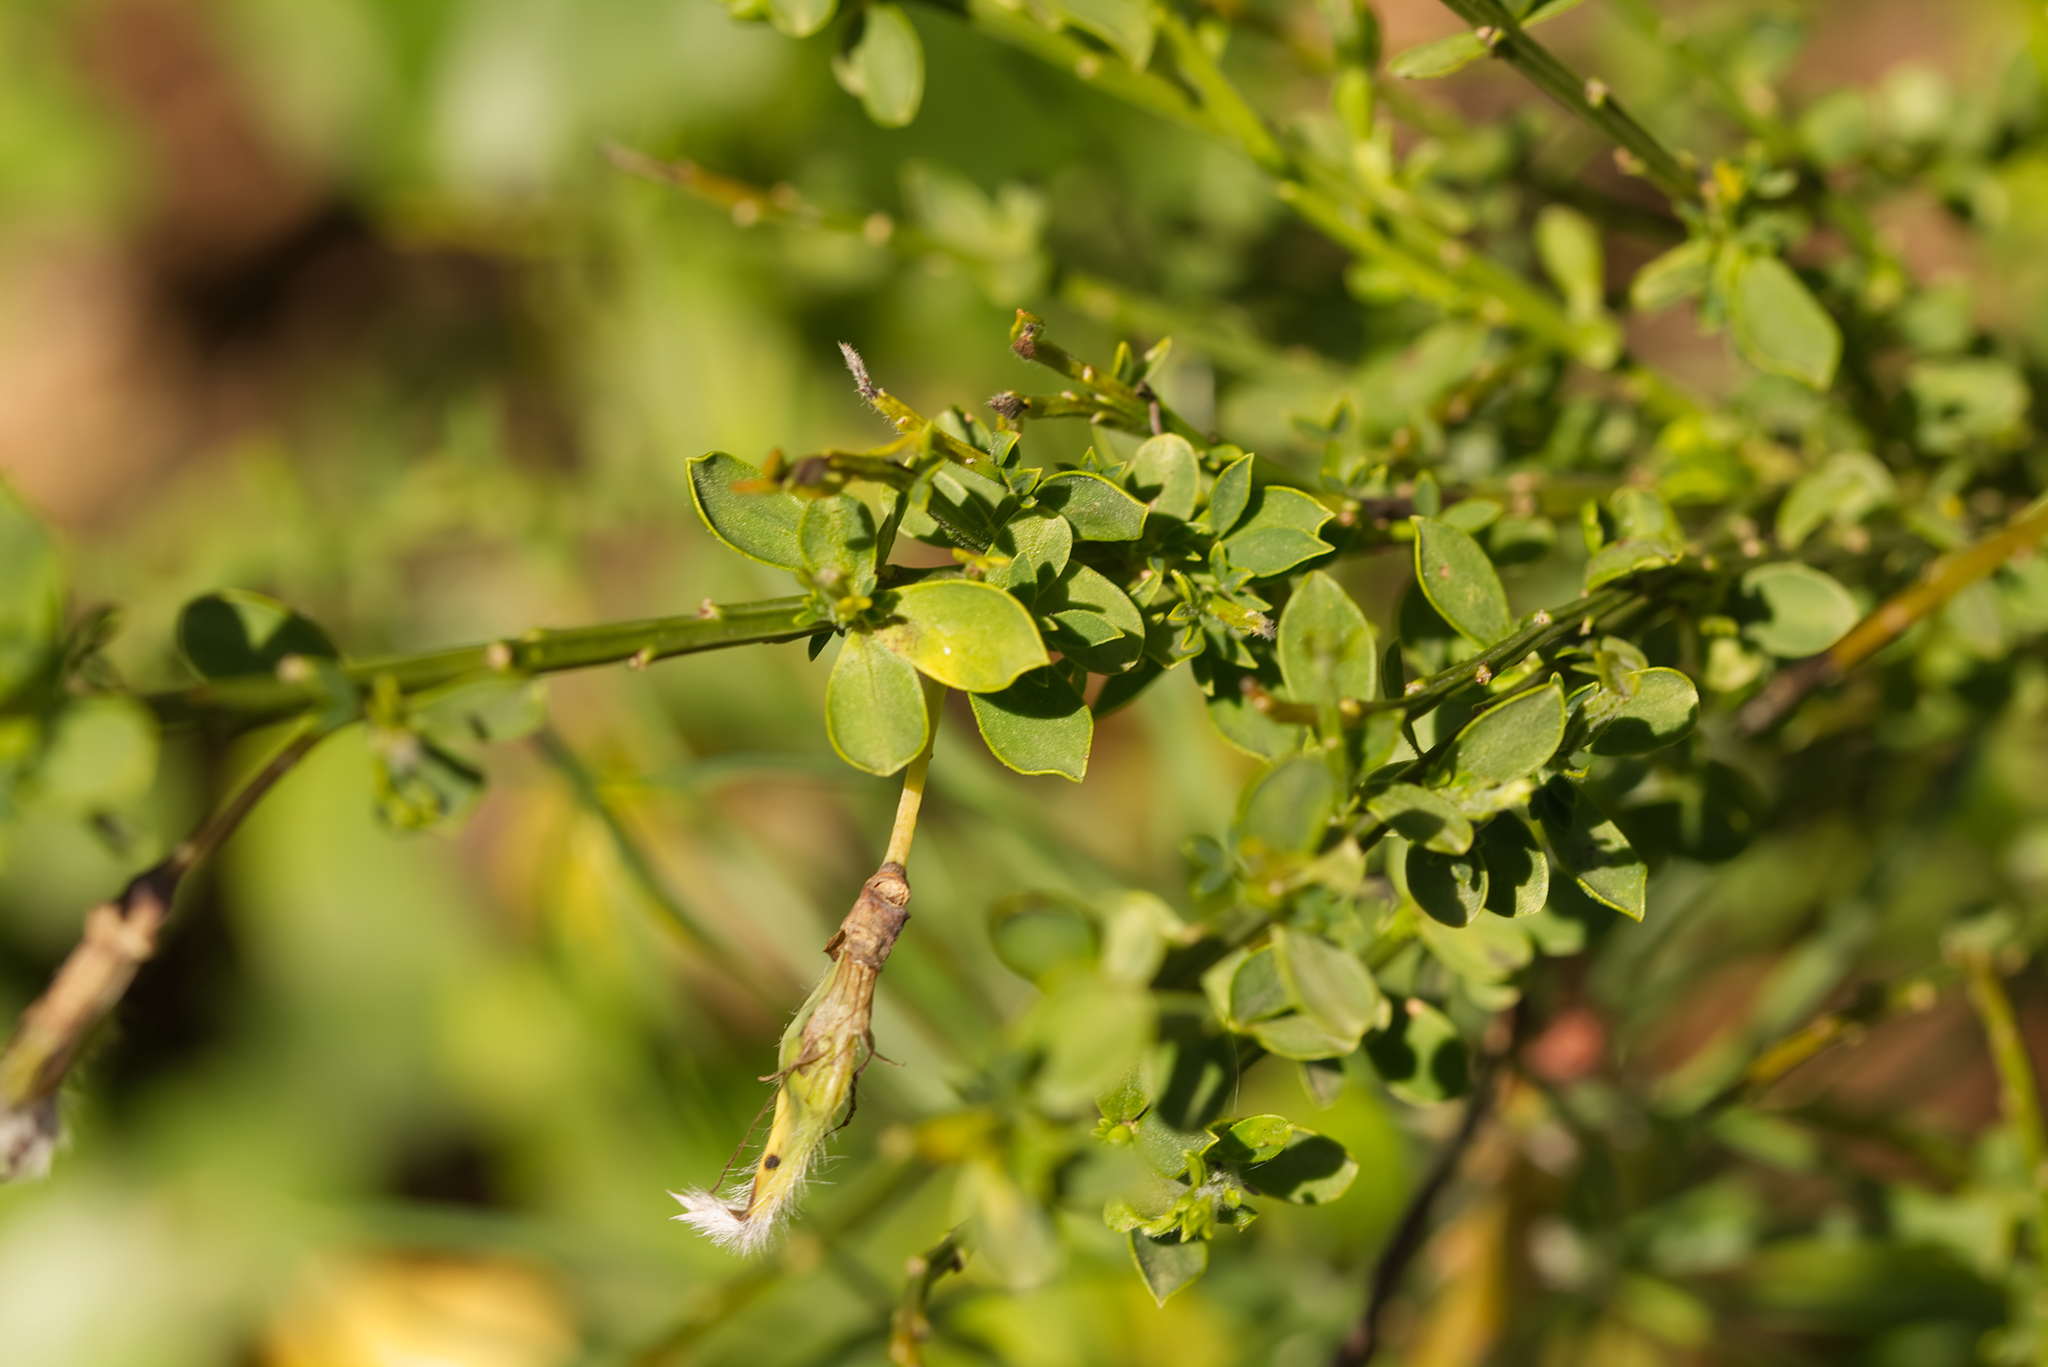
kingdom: Plantae
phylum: Tracheophyta
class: Magnoliopsida
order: Fabales
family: Fabaceae
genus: Cytisus
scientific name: Cytisus scoparius
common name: Scotch broom
